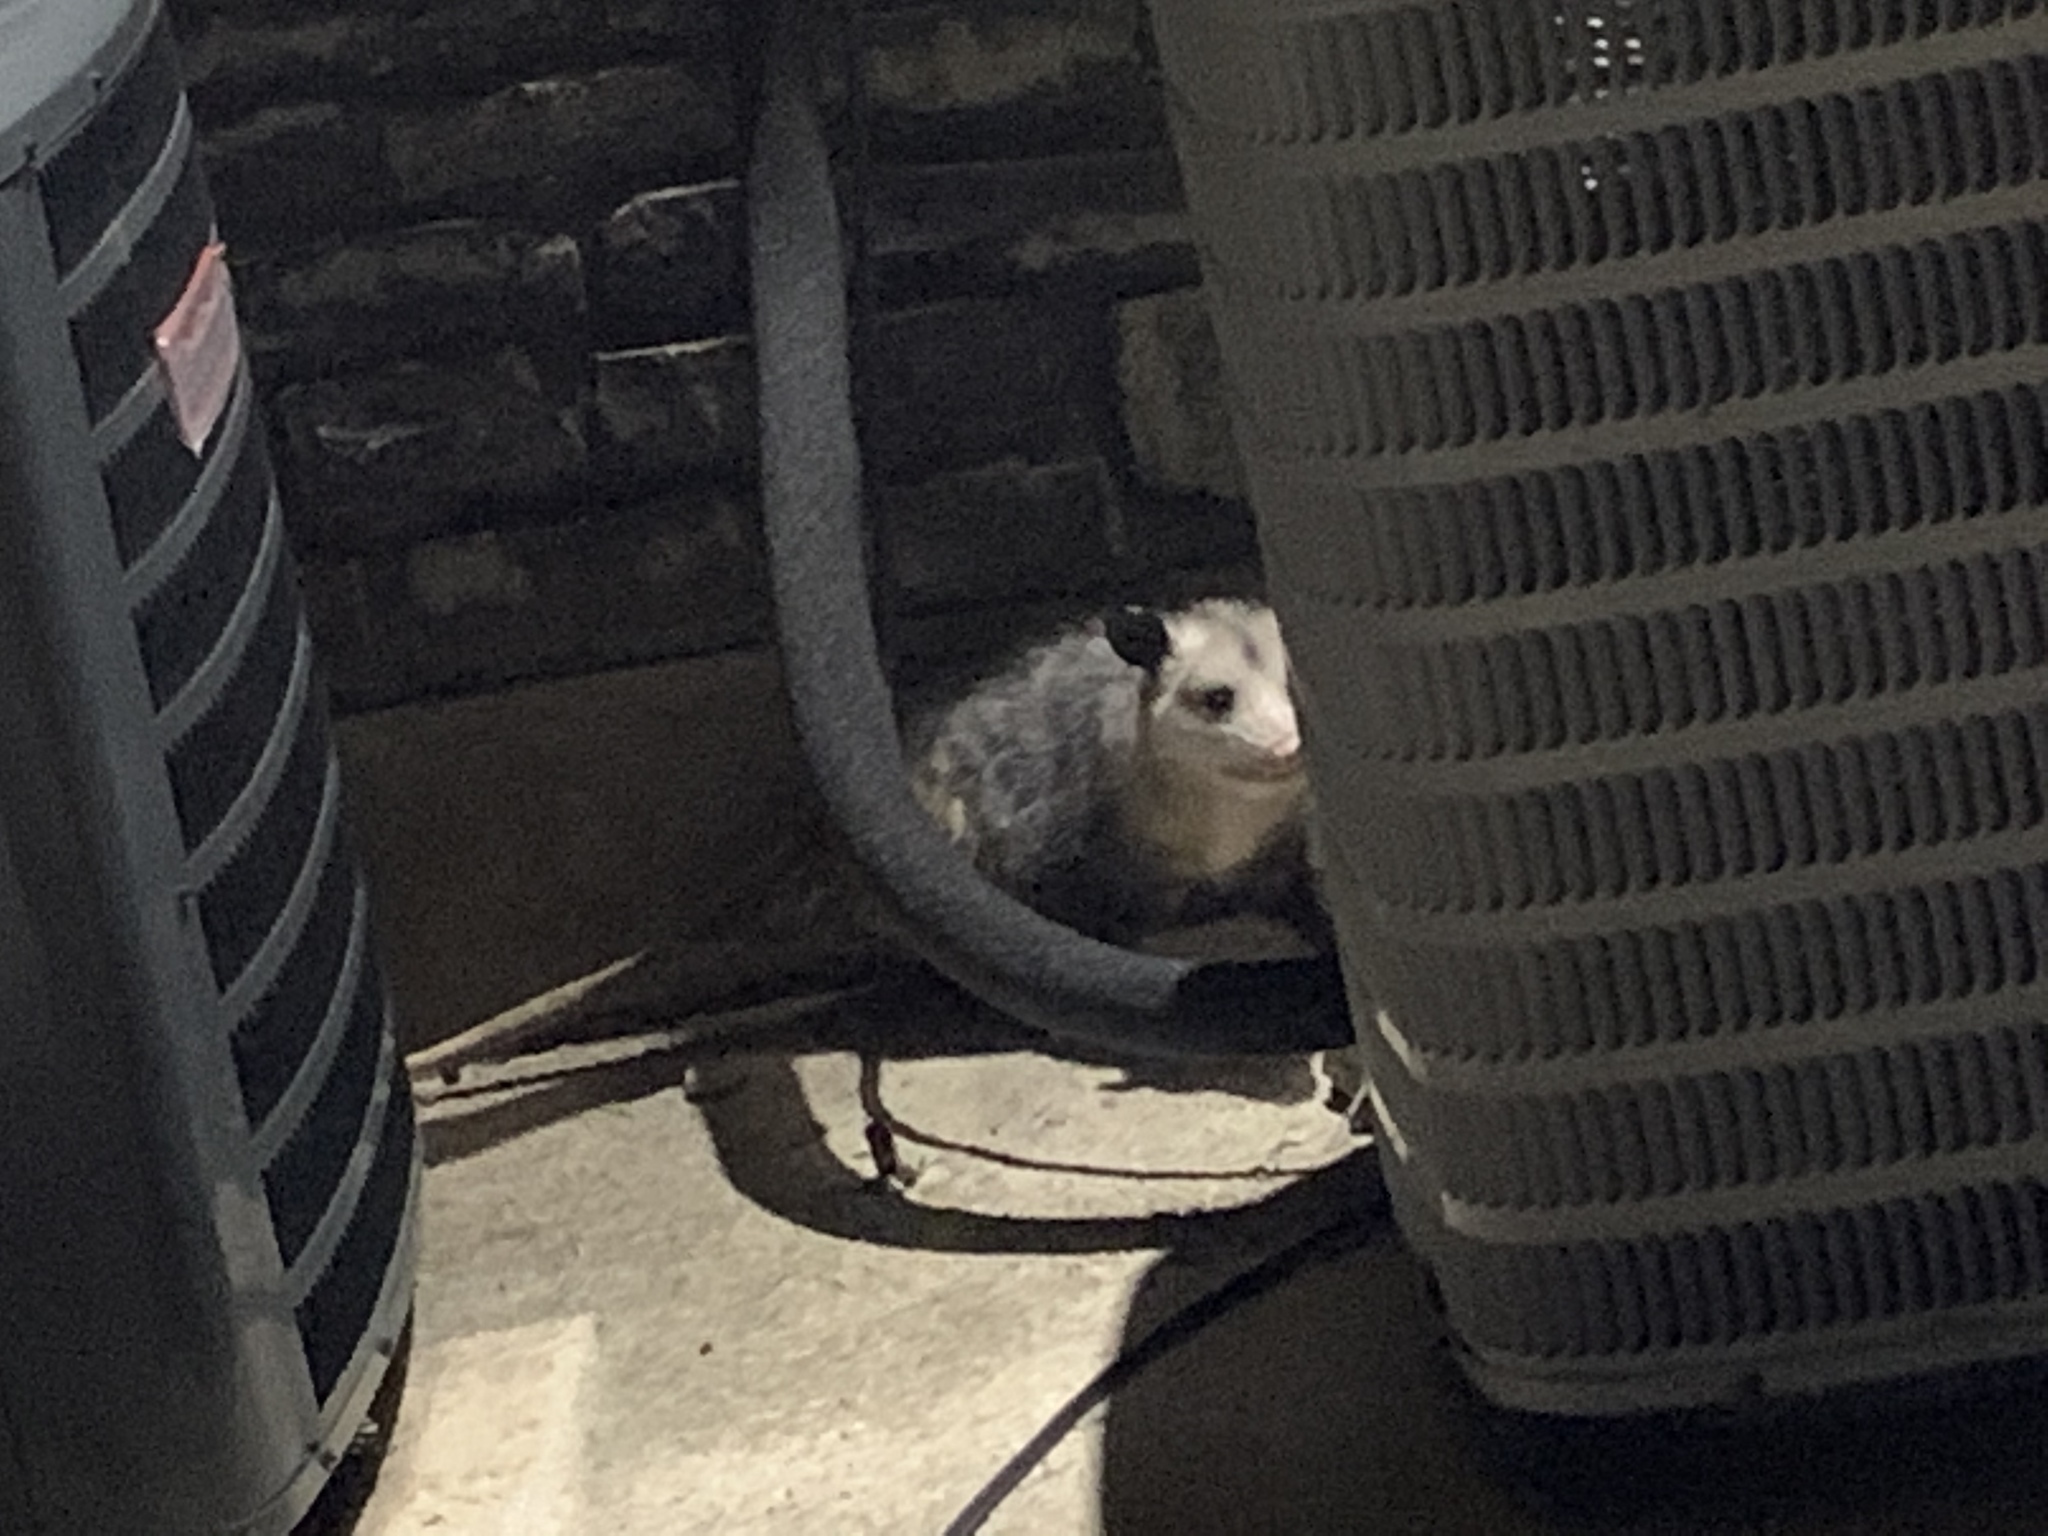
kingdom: Animalia
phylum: Chordata
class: Mammalia
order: Didelphimorphia
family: Didelphidae
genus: Didelphis
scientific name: Didelphis virginiana
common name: Virginia opossum
